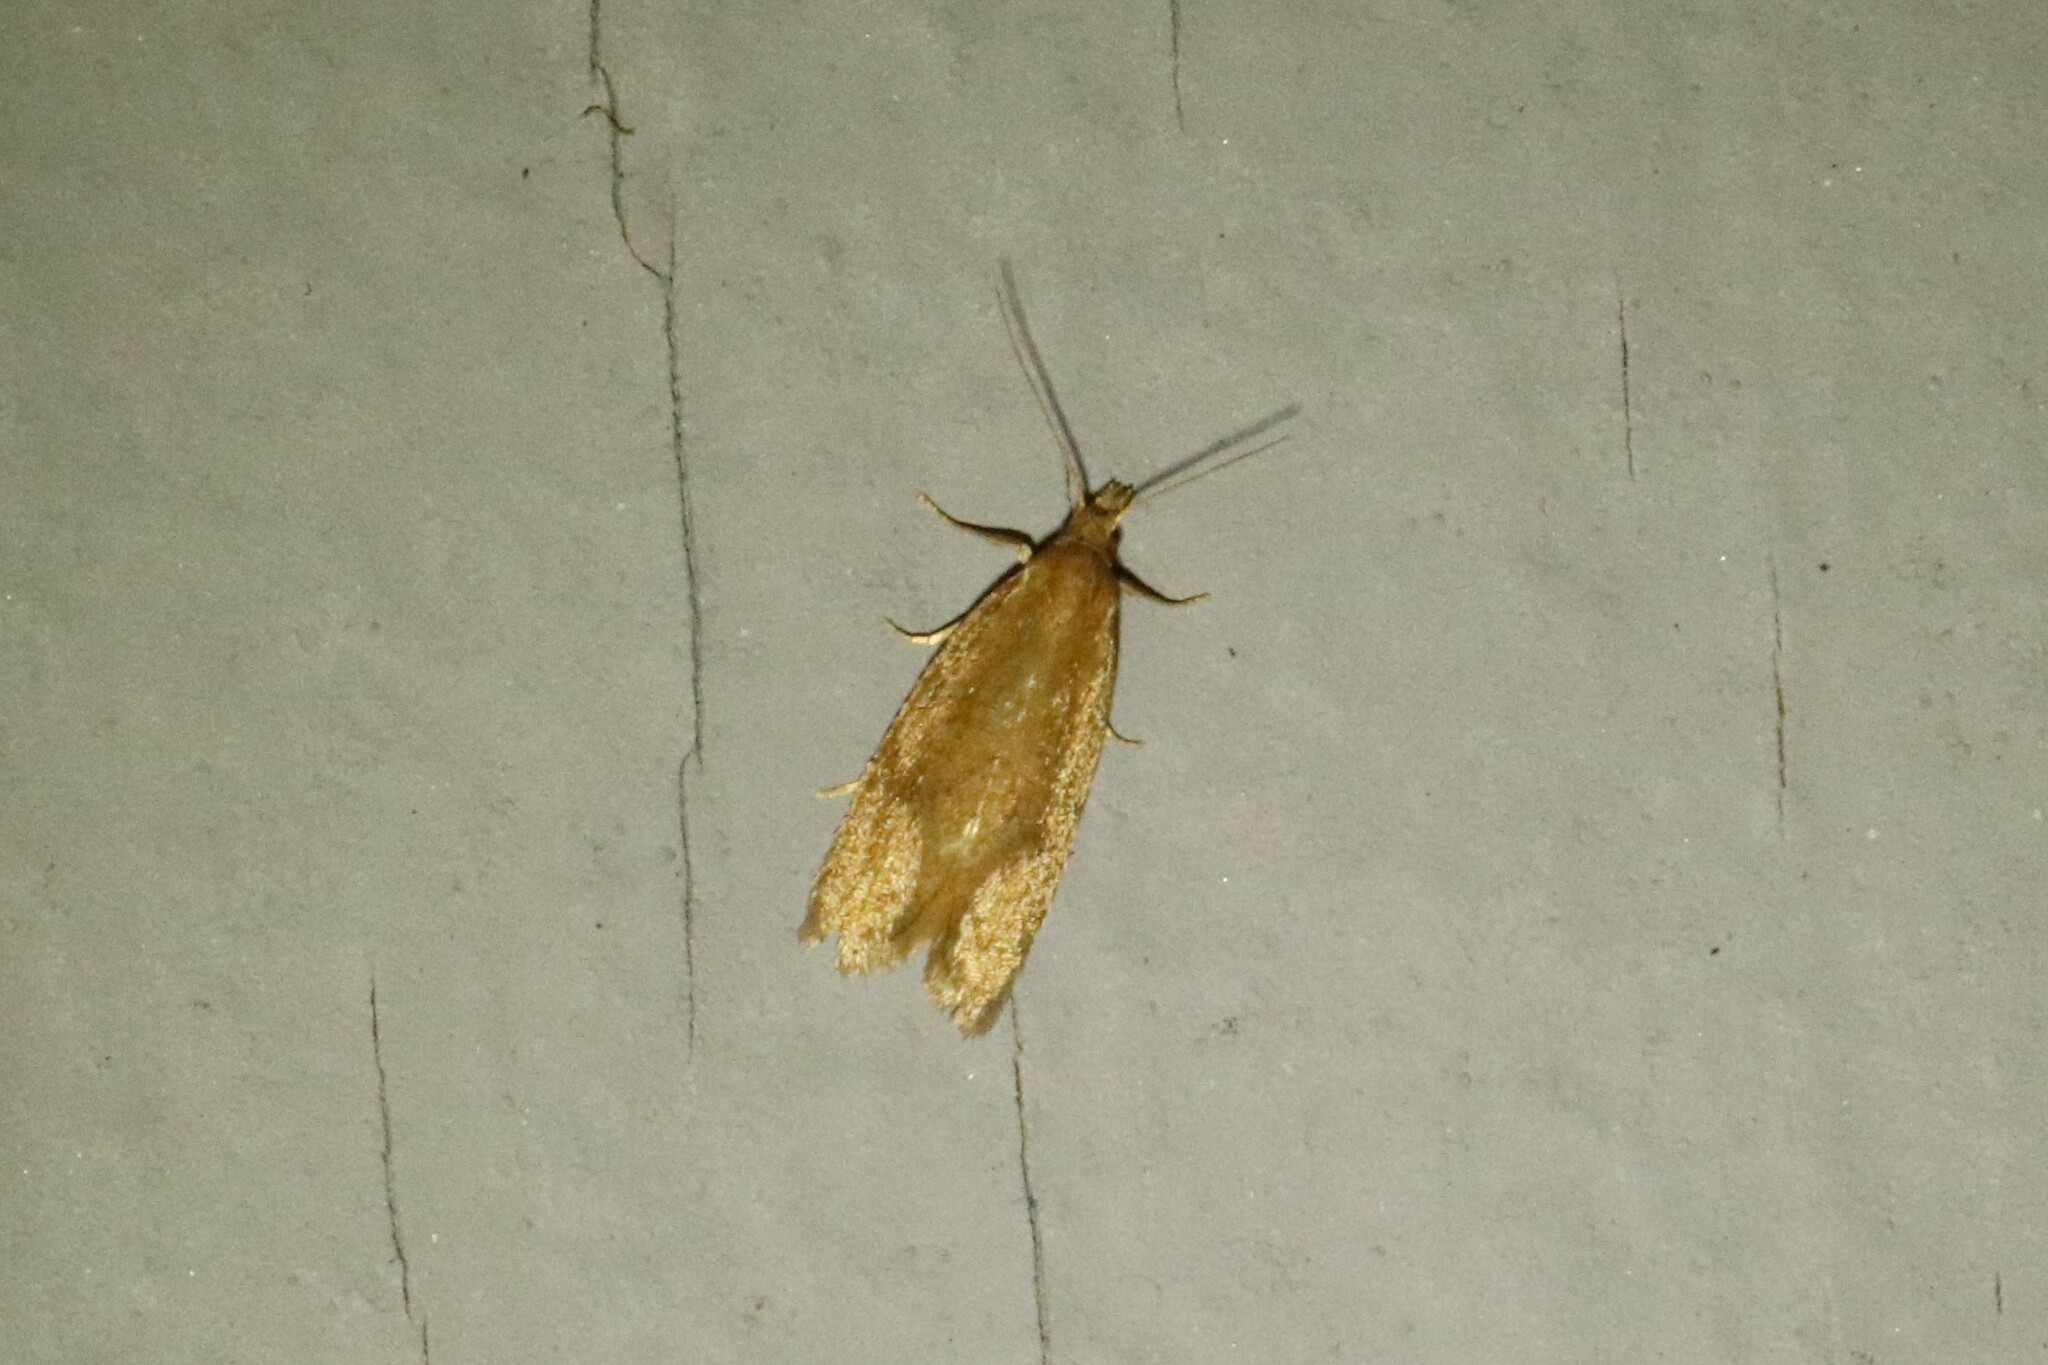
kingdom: Animalia
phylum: Arthropoda
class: Insecta
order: Lepidoptera
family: Tortricidae
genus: Aethes
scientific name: Aethes biscana
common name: Reddish aethes
